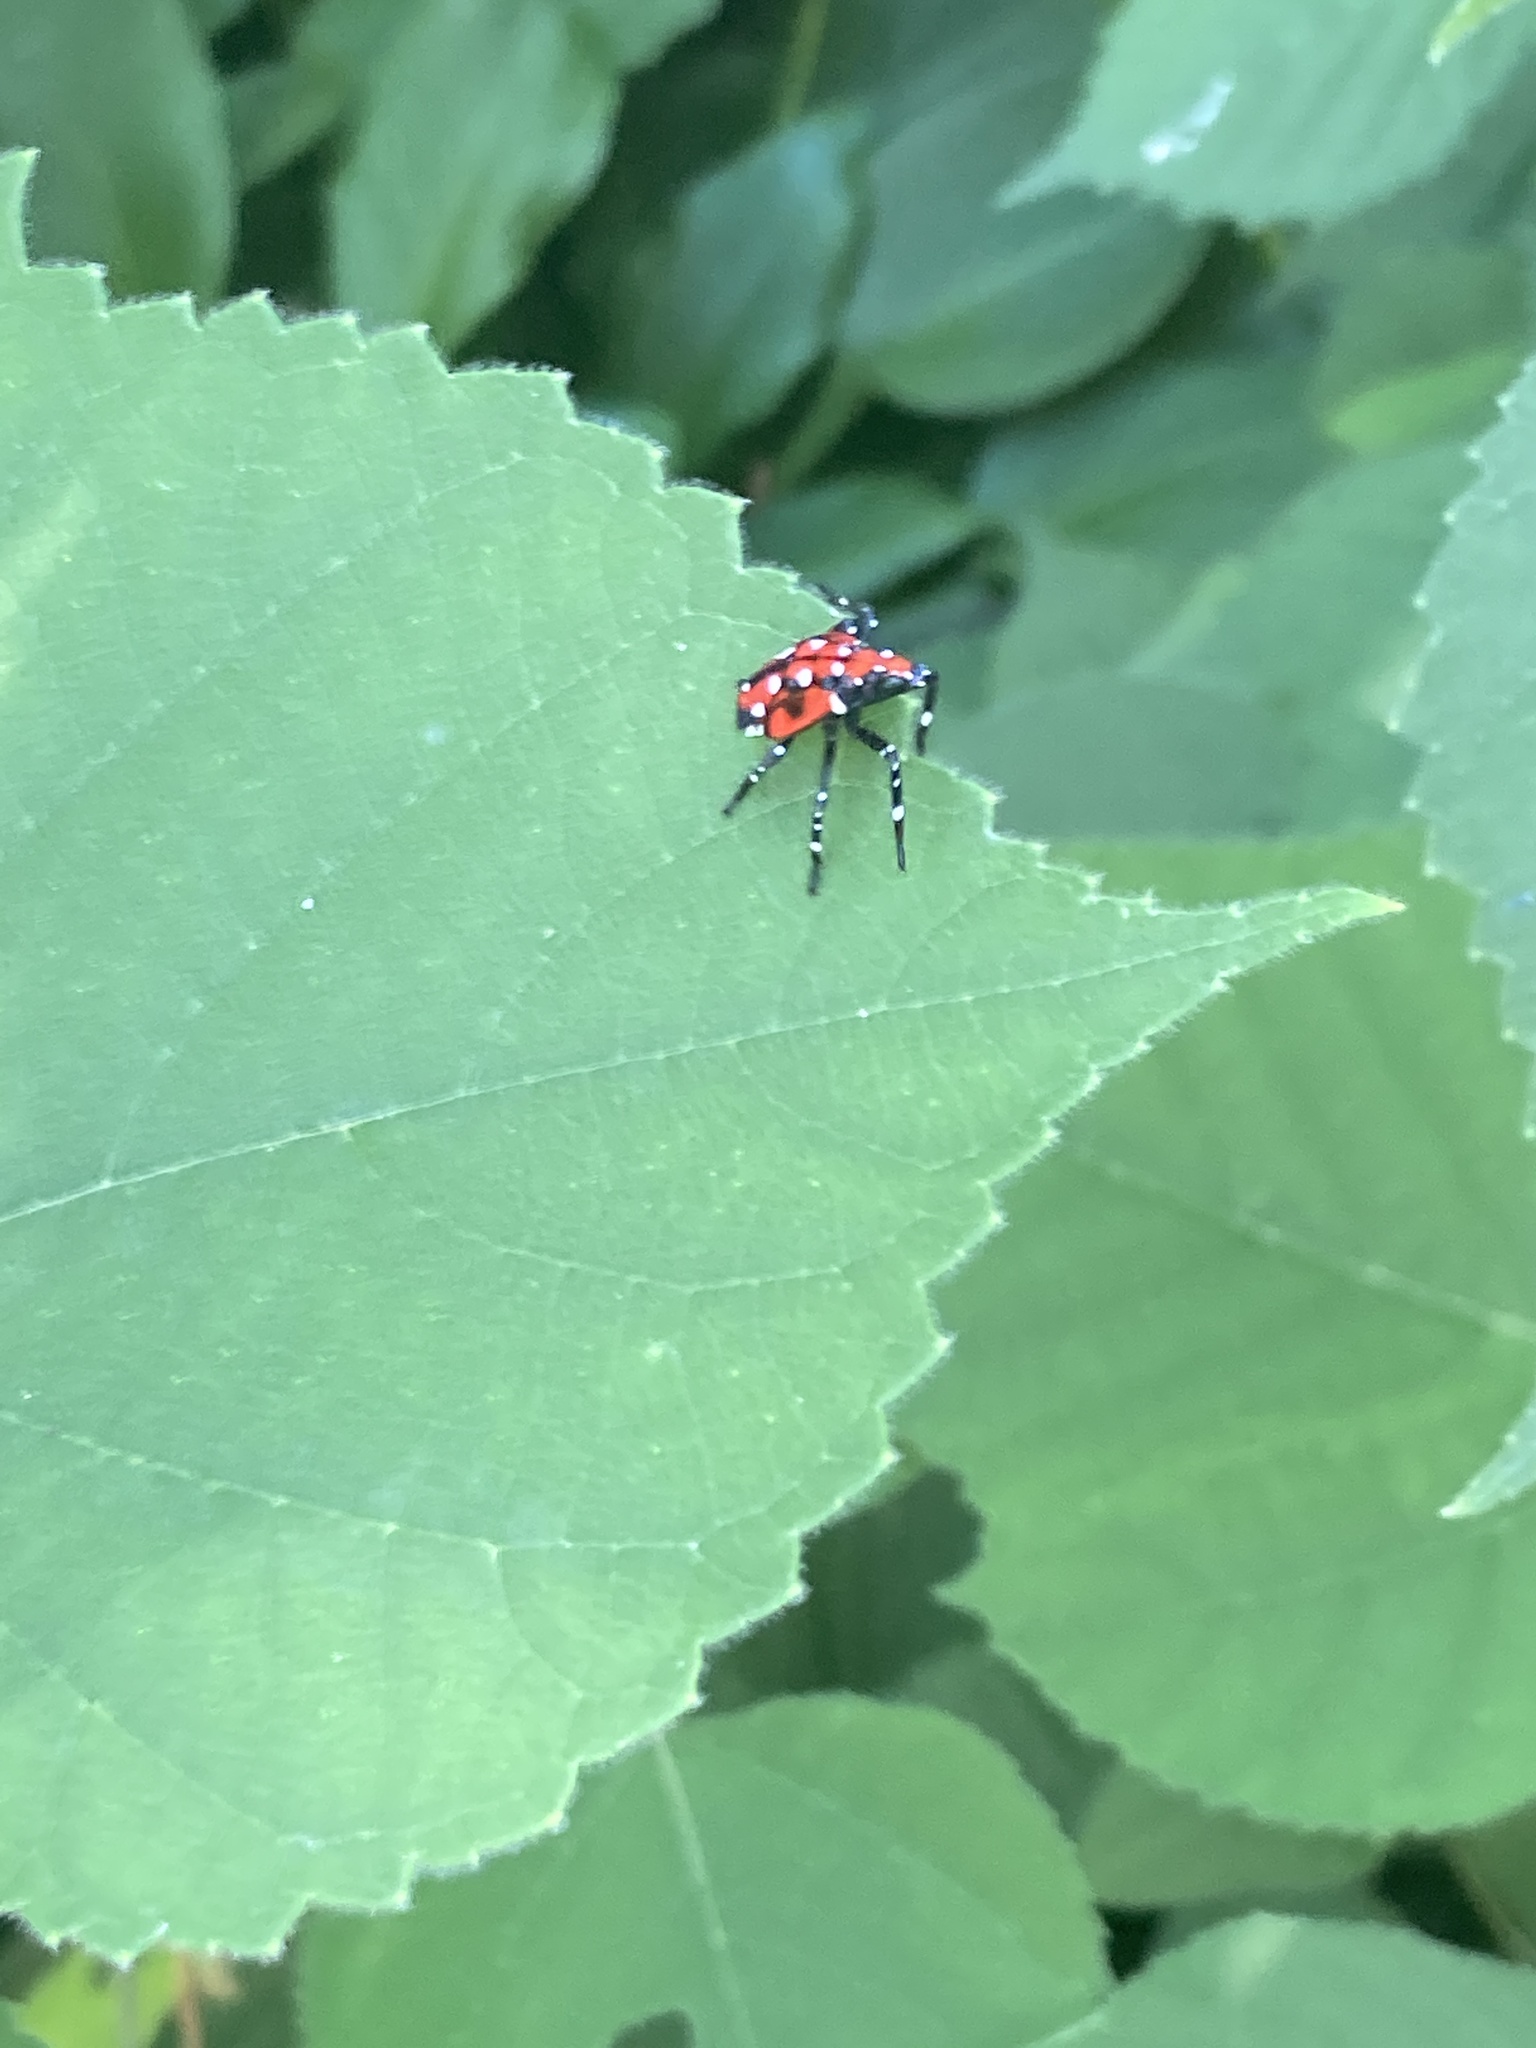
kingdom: Animalia
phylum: Arthropoda
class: Insecta
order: Hemiptera
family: Fulgoridae
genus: Lycorma
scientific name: Lycorma delicatula
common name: Spotted lanternfly
